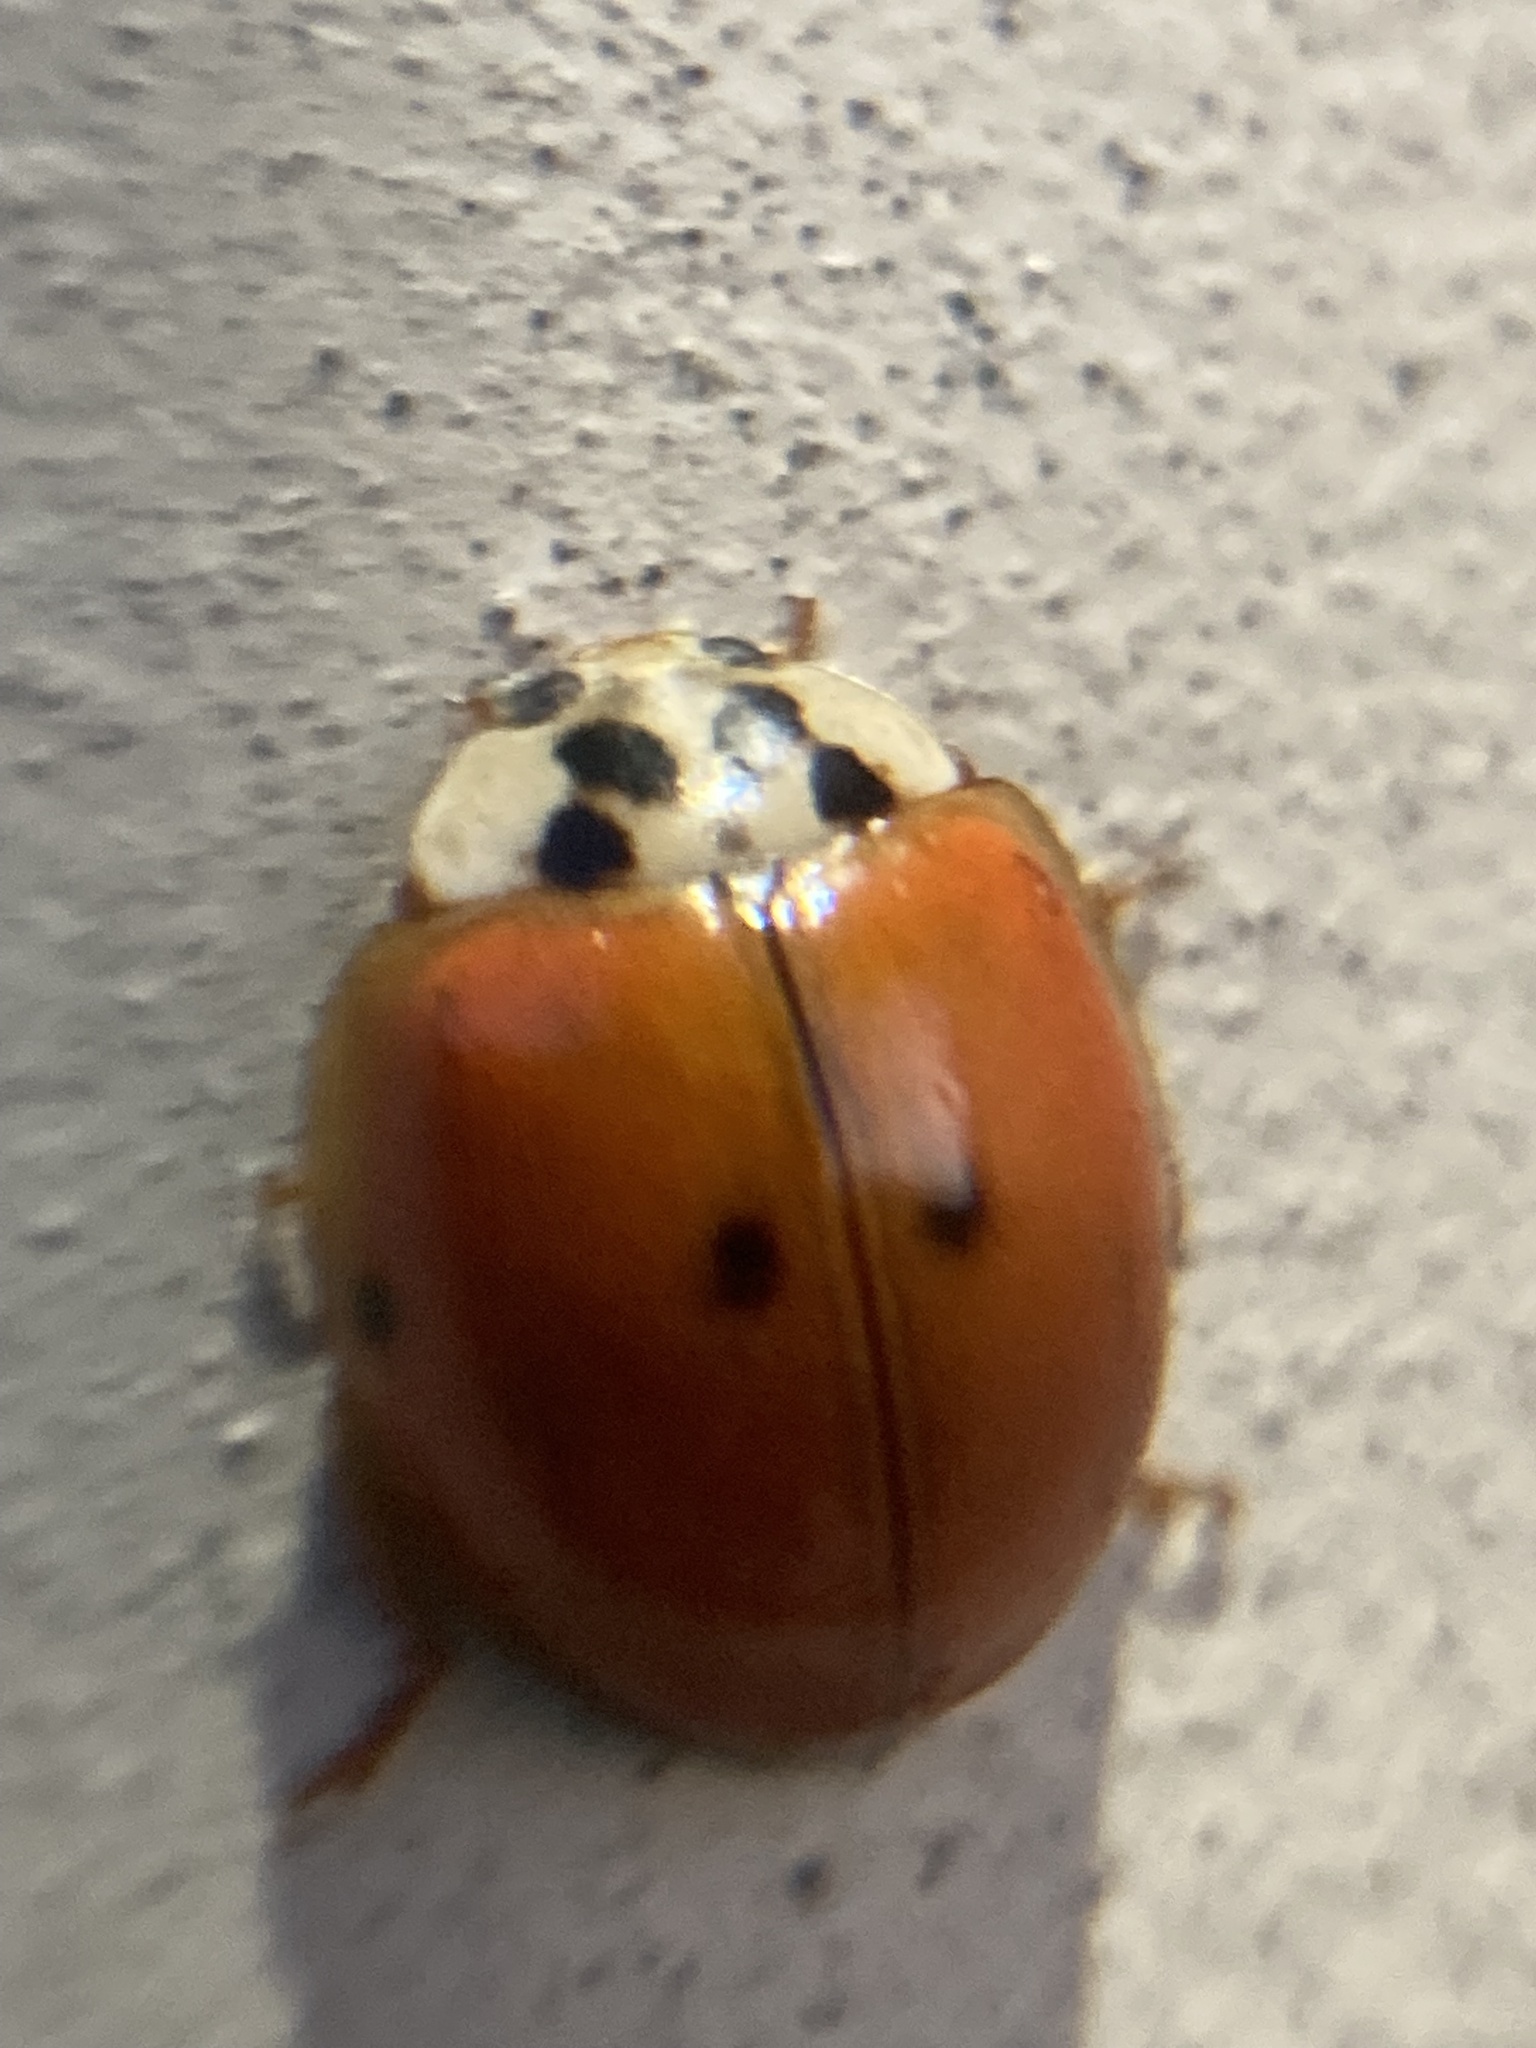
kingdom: Animalia
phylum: Arthropoda
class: Insecta
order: Coleoptera
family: Coccinellidae
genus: Harmonia
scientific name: Harmonia axyridis
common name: Harlequin ladybird
